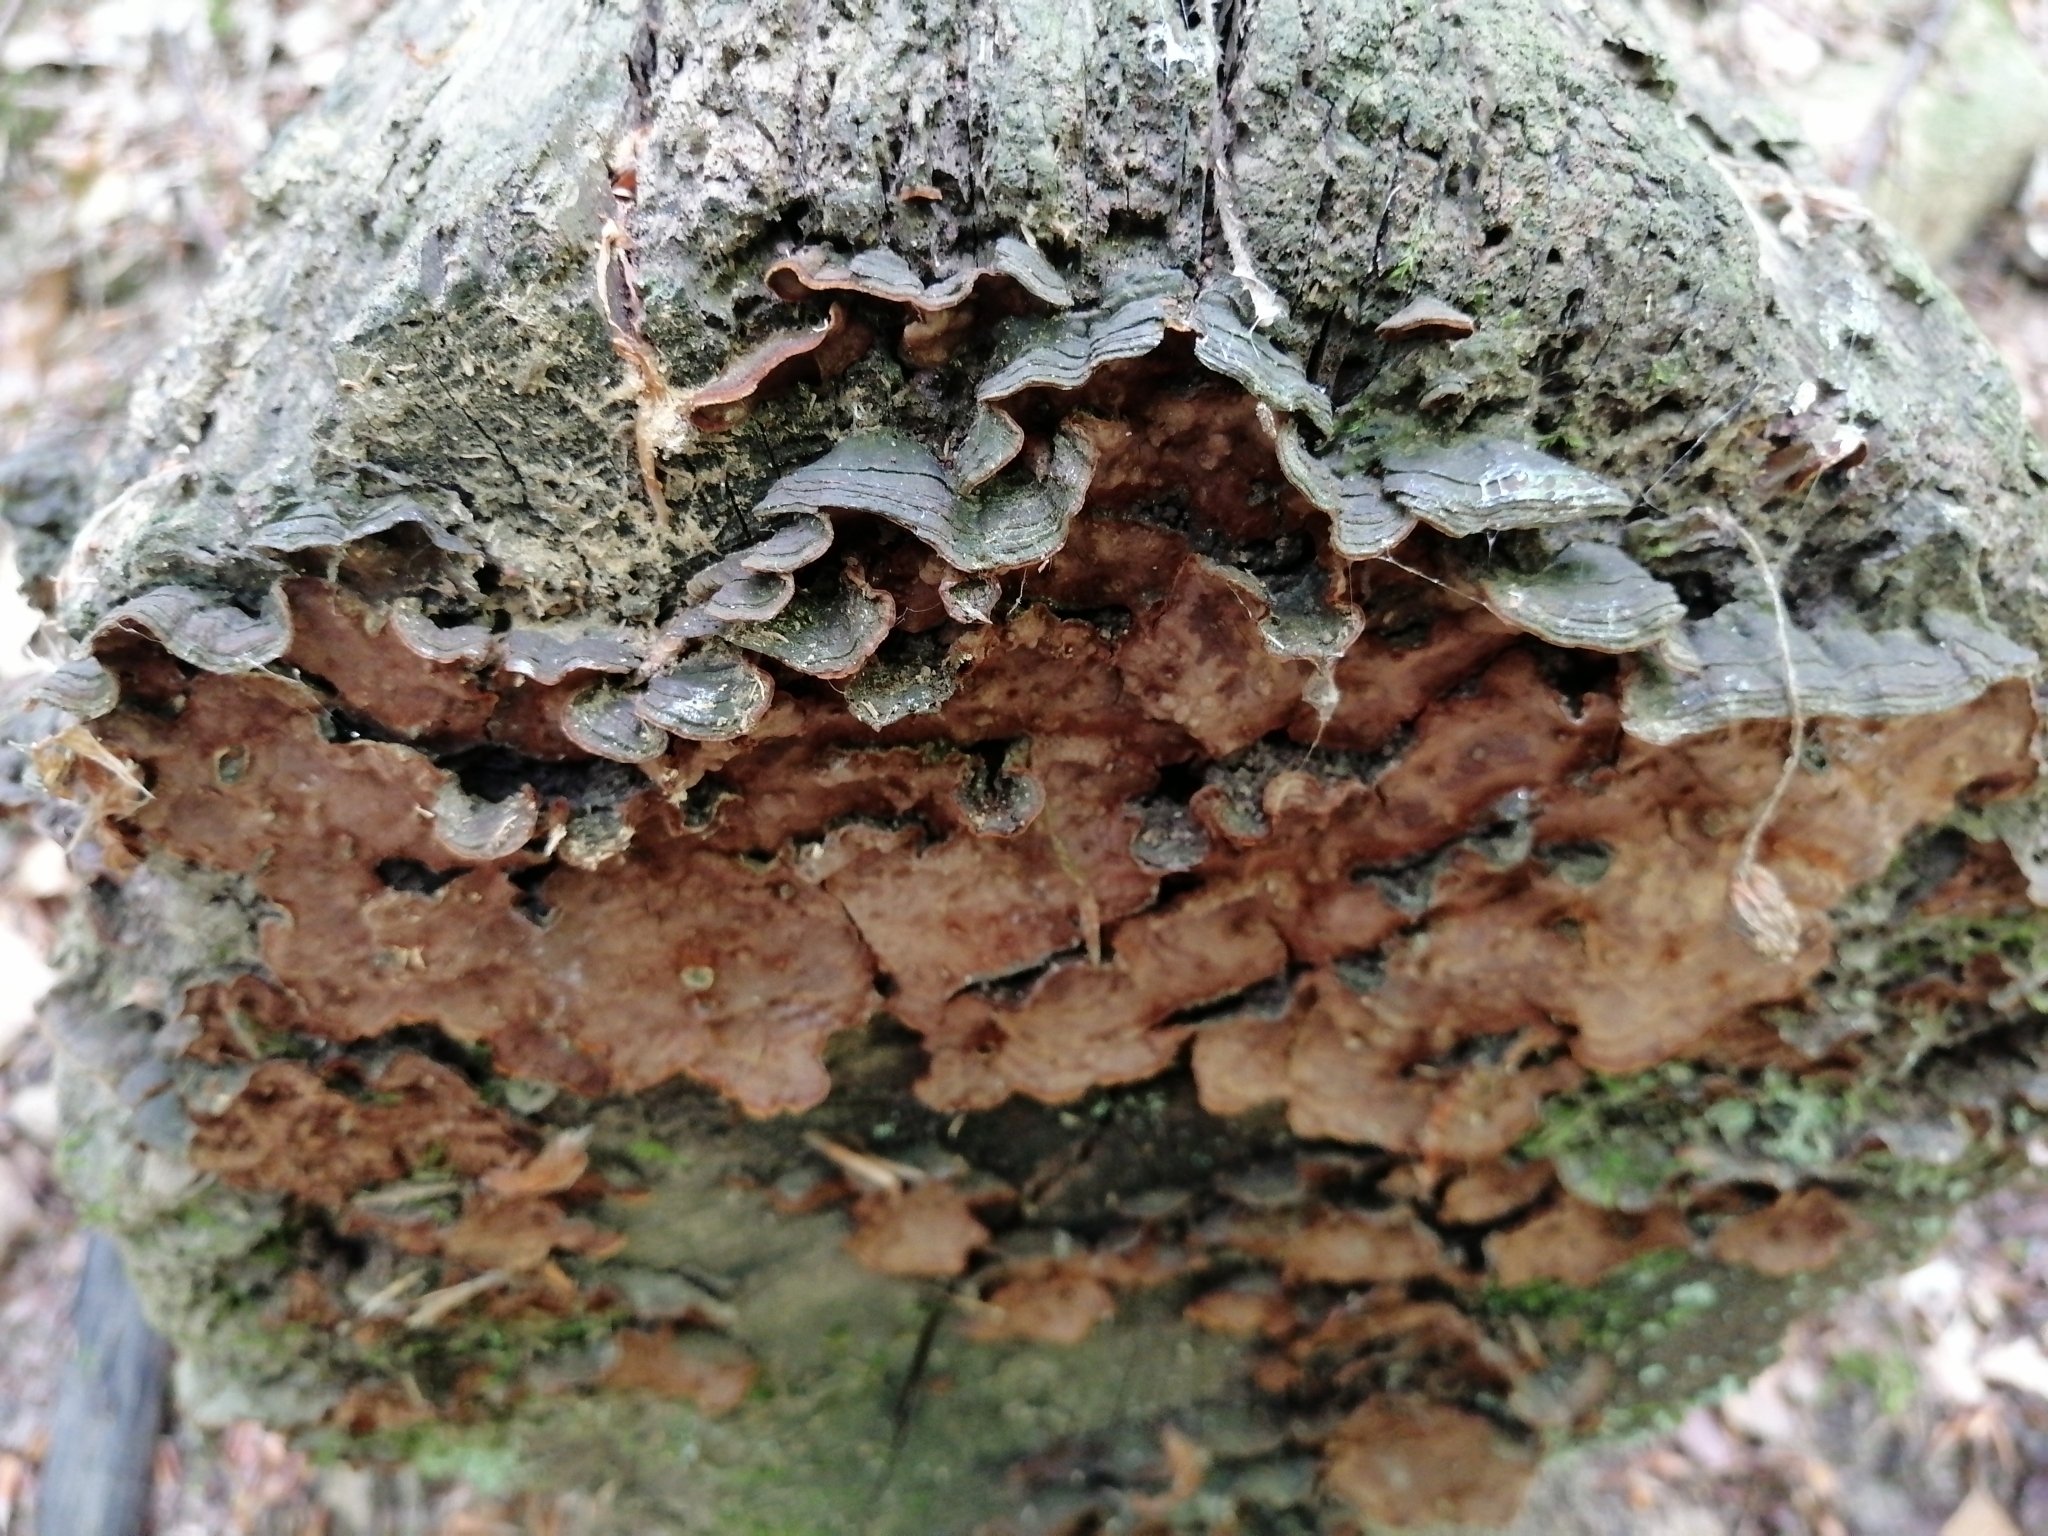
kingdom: Fungi
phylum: Basidiomycota
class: Agaricomycetes
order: Hymenochaetales
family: Hymenochaetaceae
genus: Hymenochaete
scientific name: Hymenochaete rubiginosa
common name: Oak curtain crust
